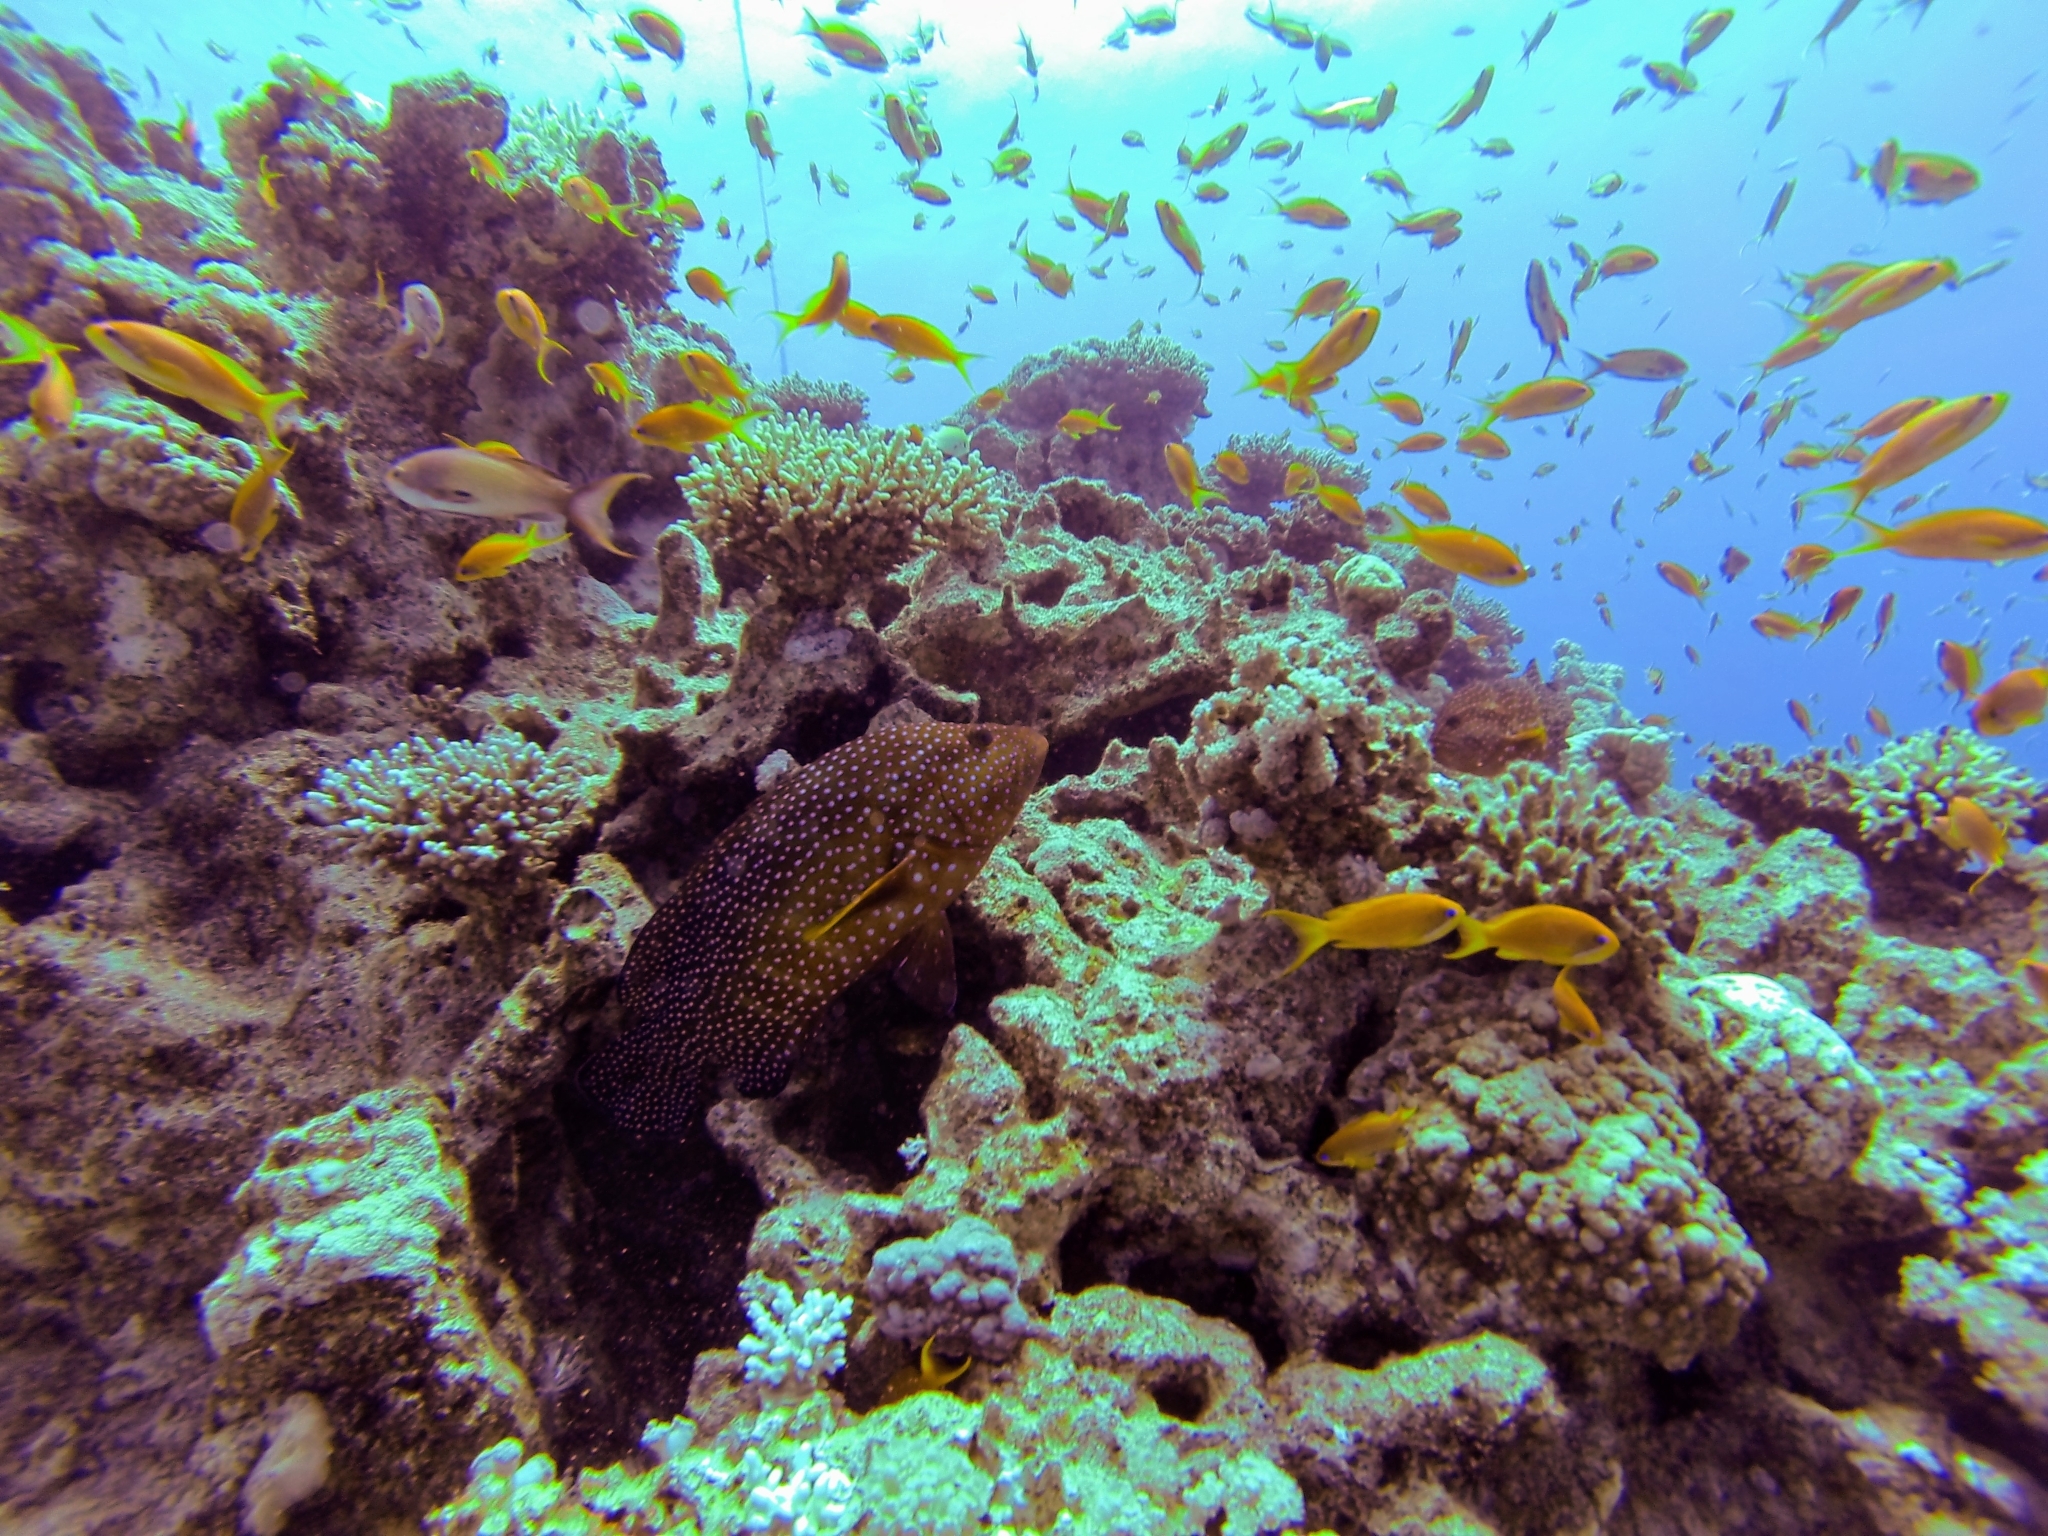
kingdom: Animalia
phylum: Chordata
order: Perciformes
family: Serranidae
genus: Cephalopholis
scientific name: Cephalopholis miniata
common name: Coral hind
